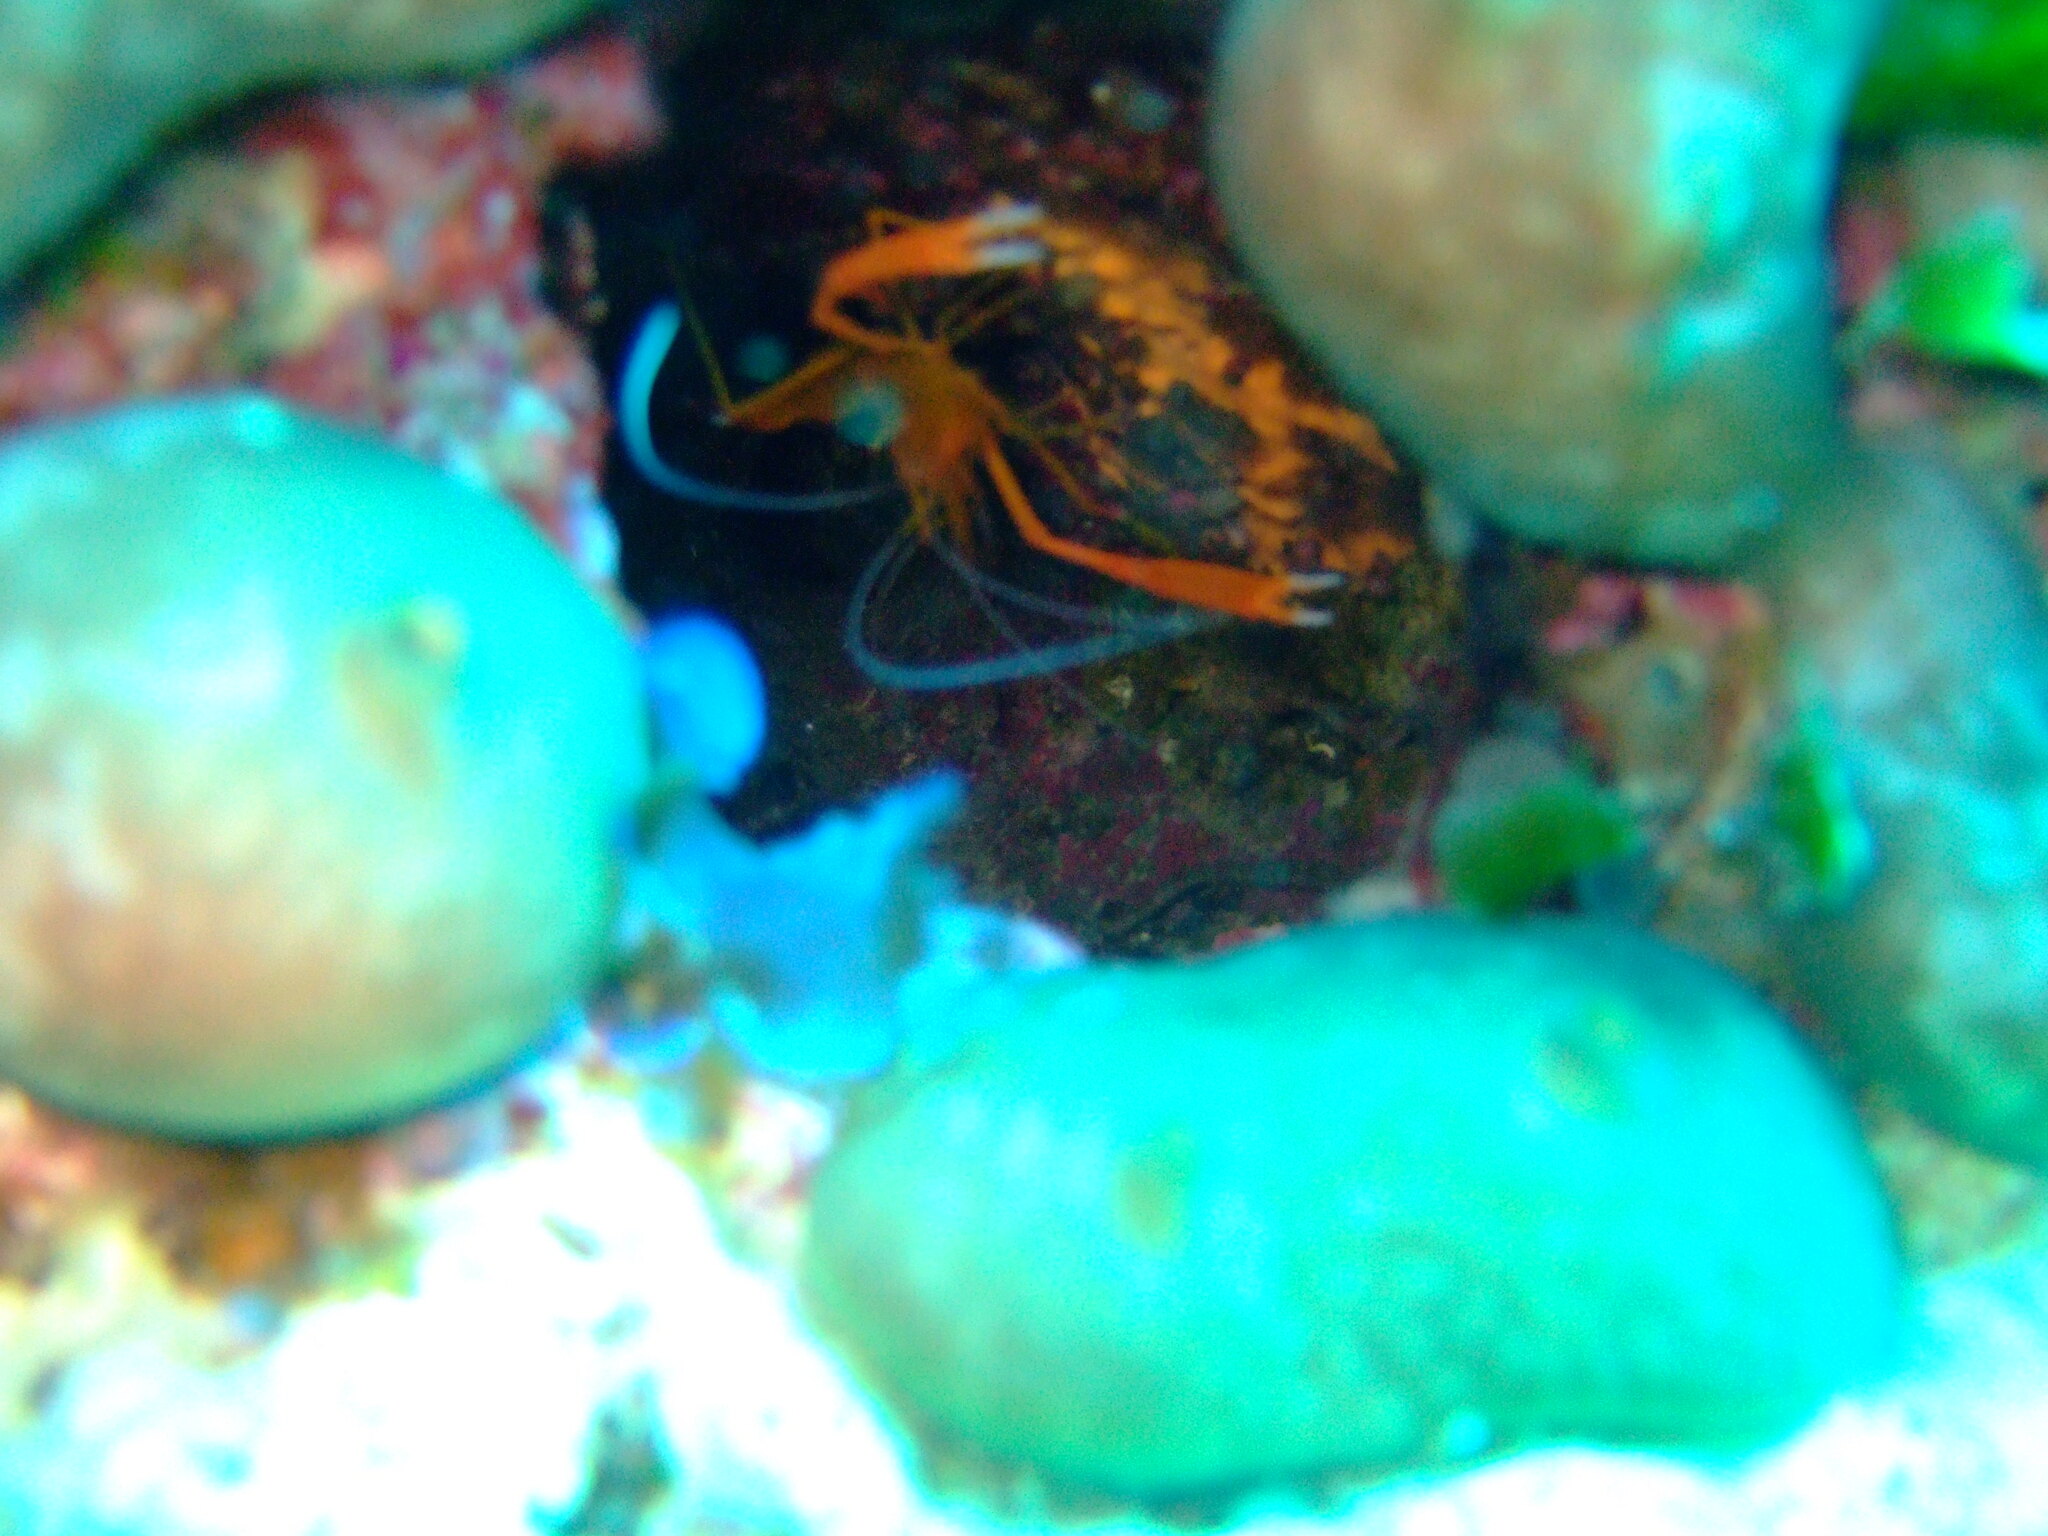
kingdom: Animalia
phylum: Arthropoda
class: Malacostraca
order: Decapoda
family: Stenopodidae
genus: Stenopus
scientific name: Stenopus spinosus
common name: Golden coral shrimp
